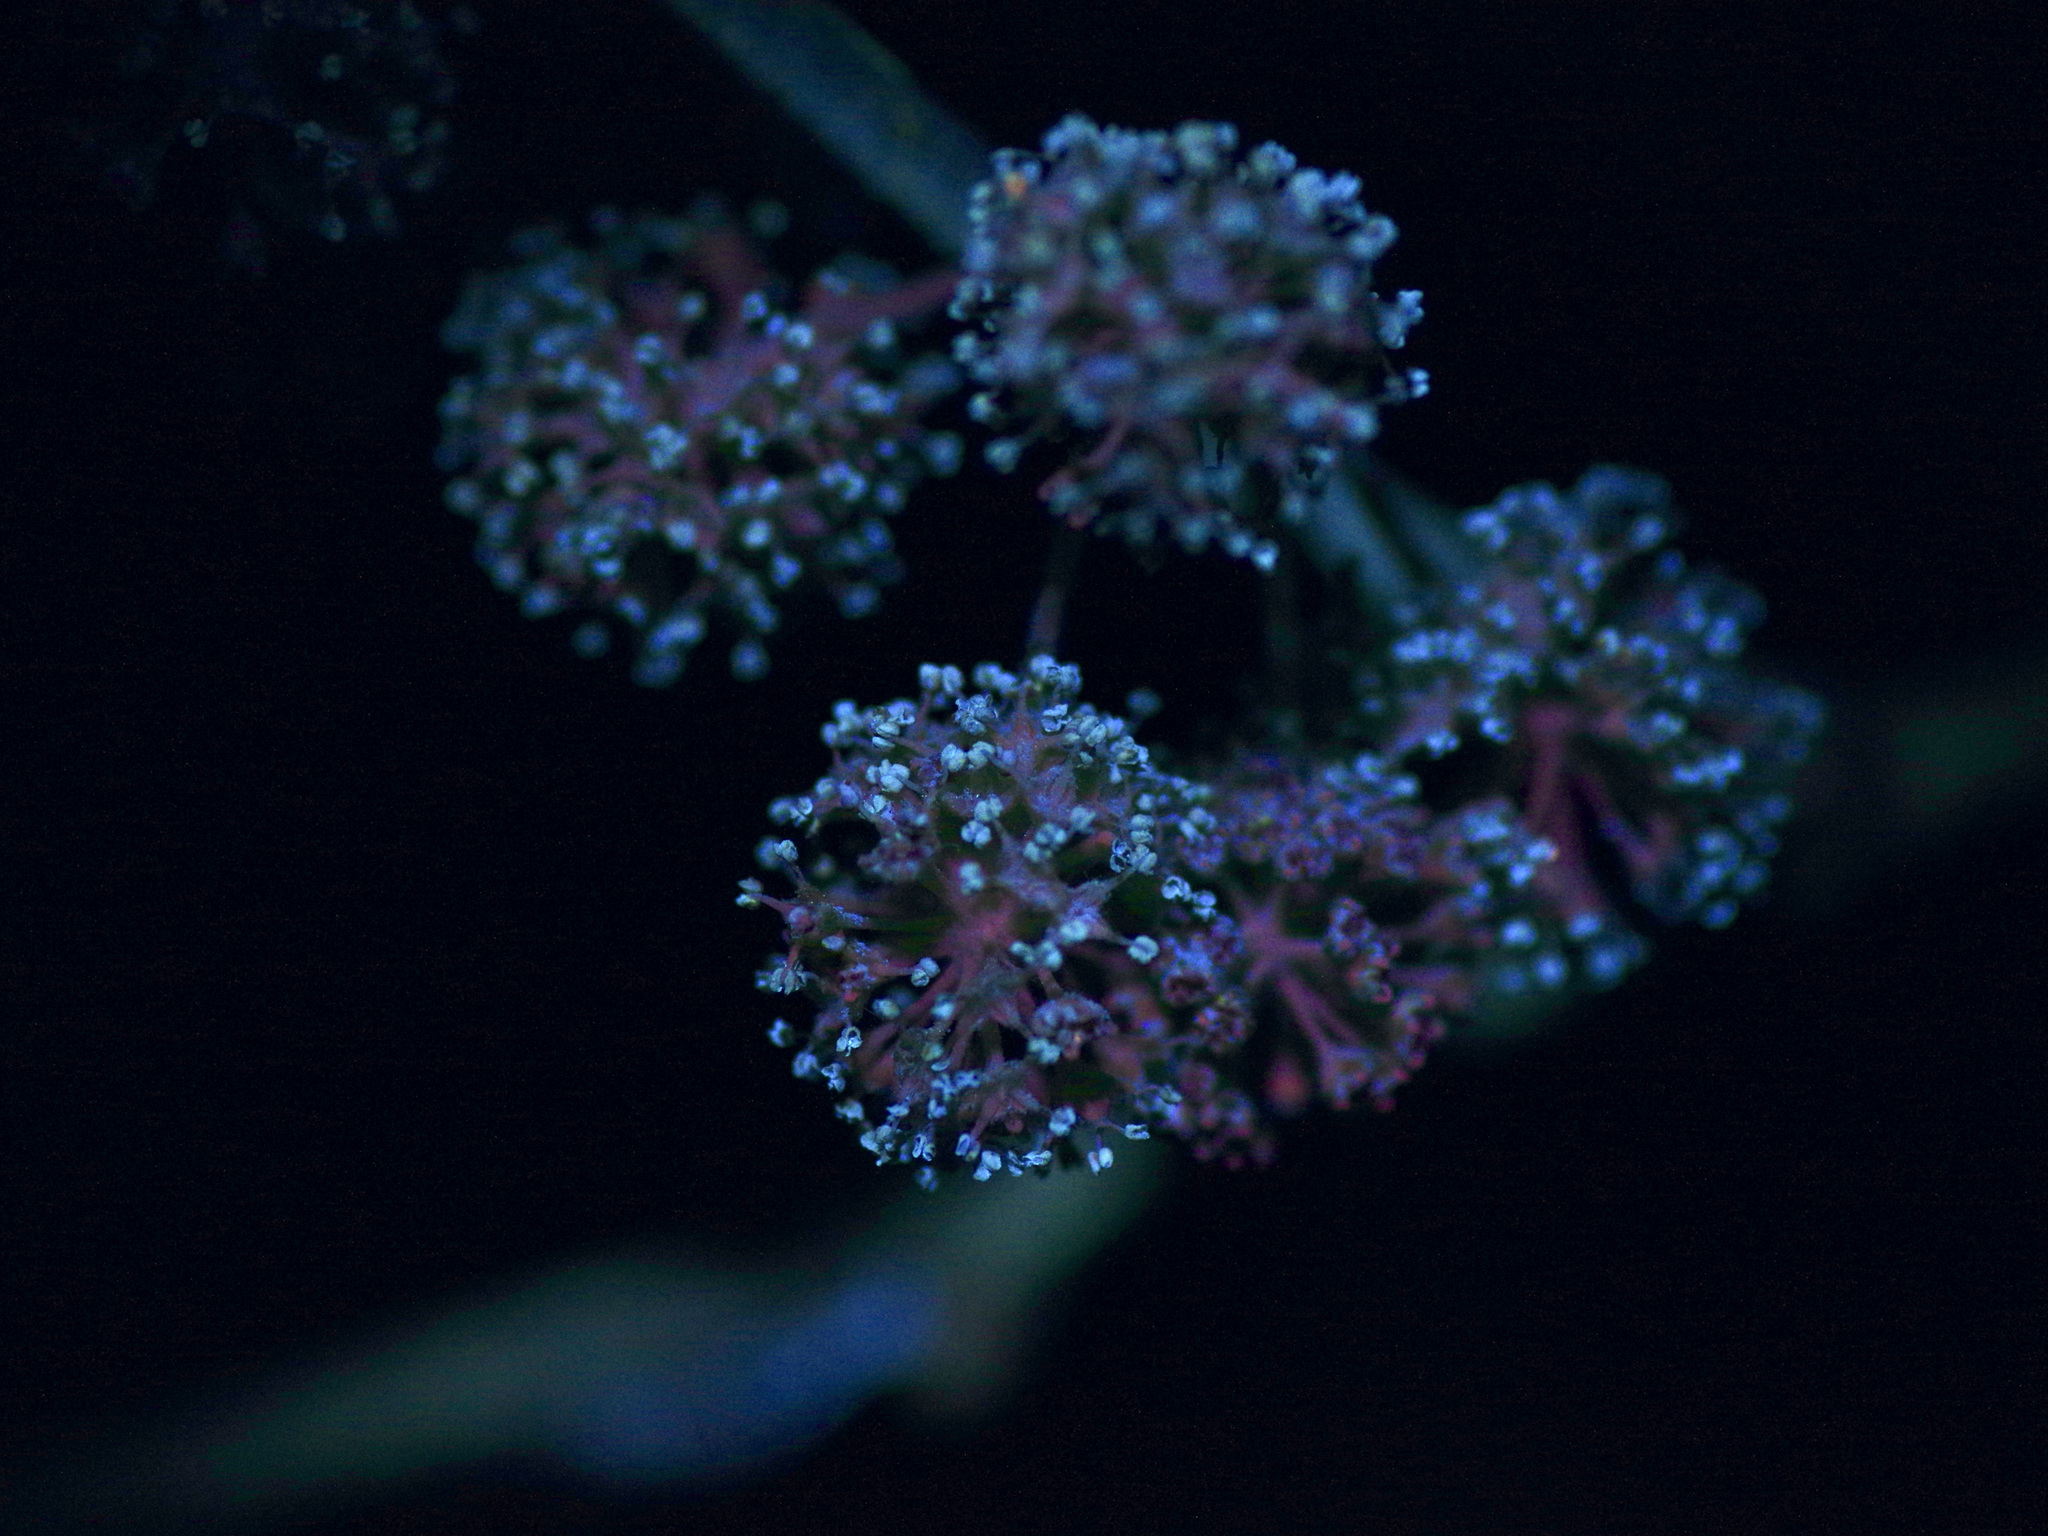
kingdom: Plantae
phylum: Tracheophyta
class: Magnoliopsida
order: Rosales
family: Moraceae
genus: Maclura
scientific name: Maclura pomifera
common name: Osage-orange
